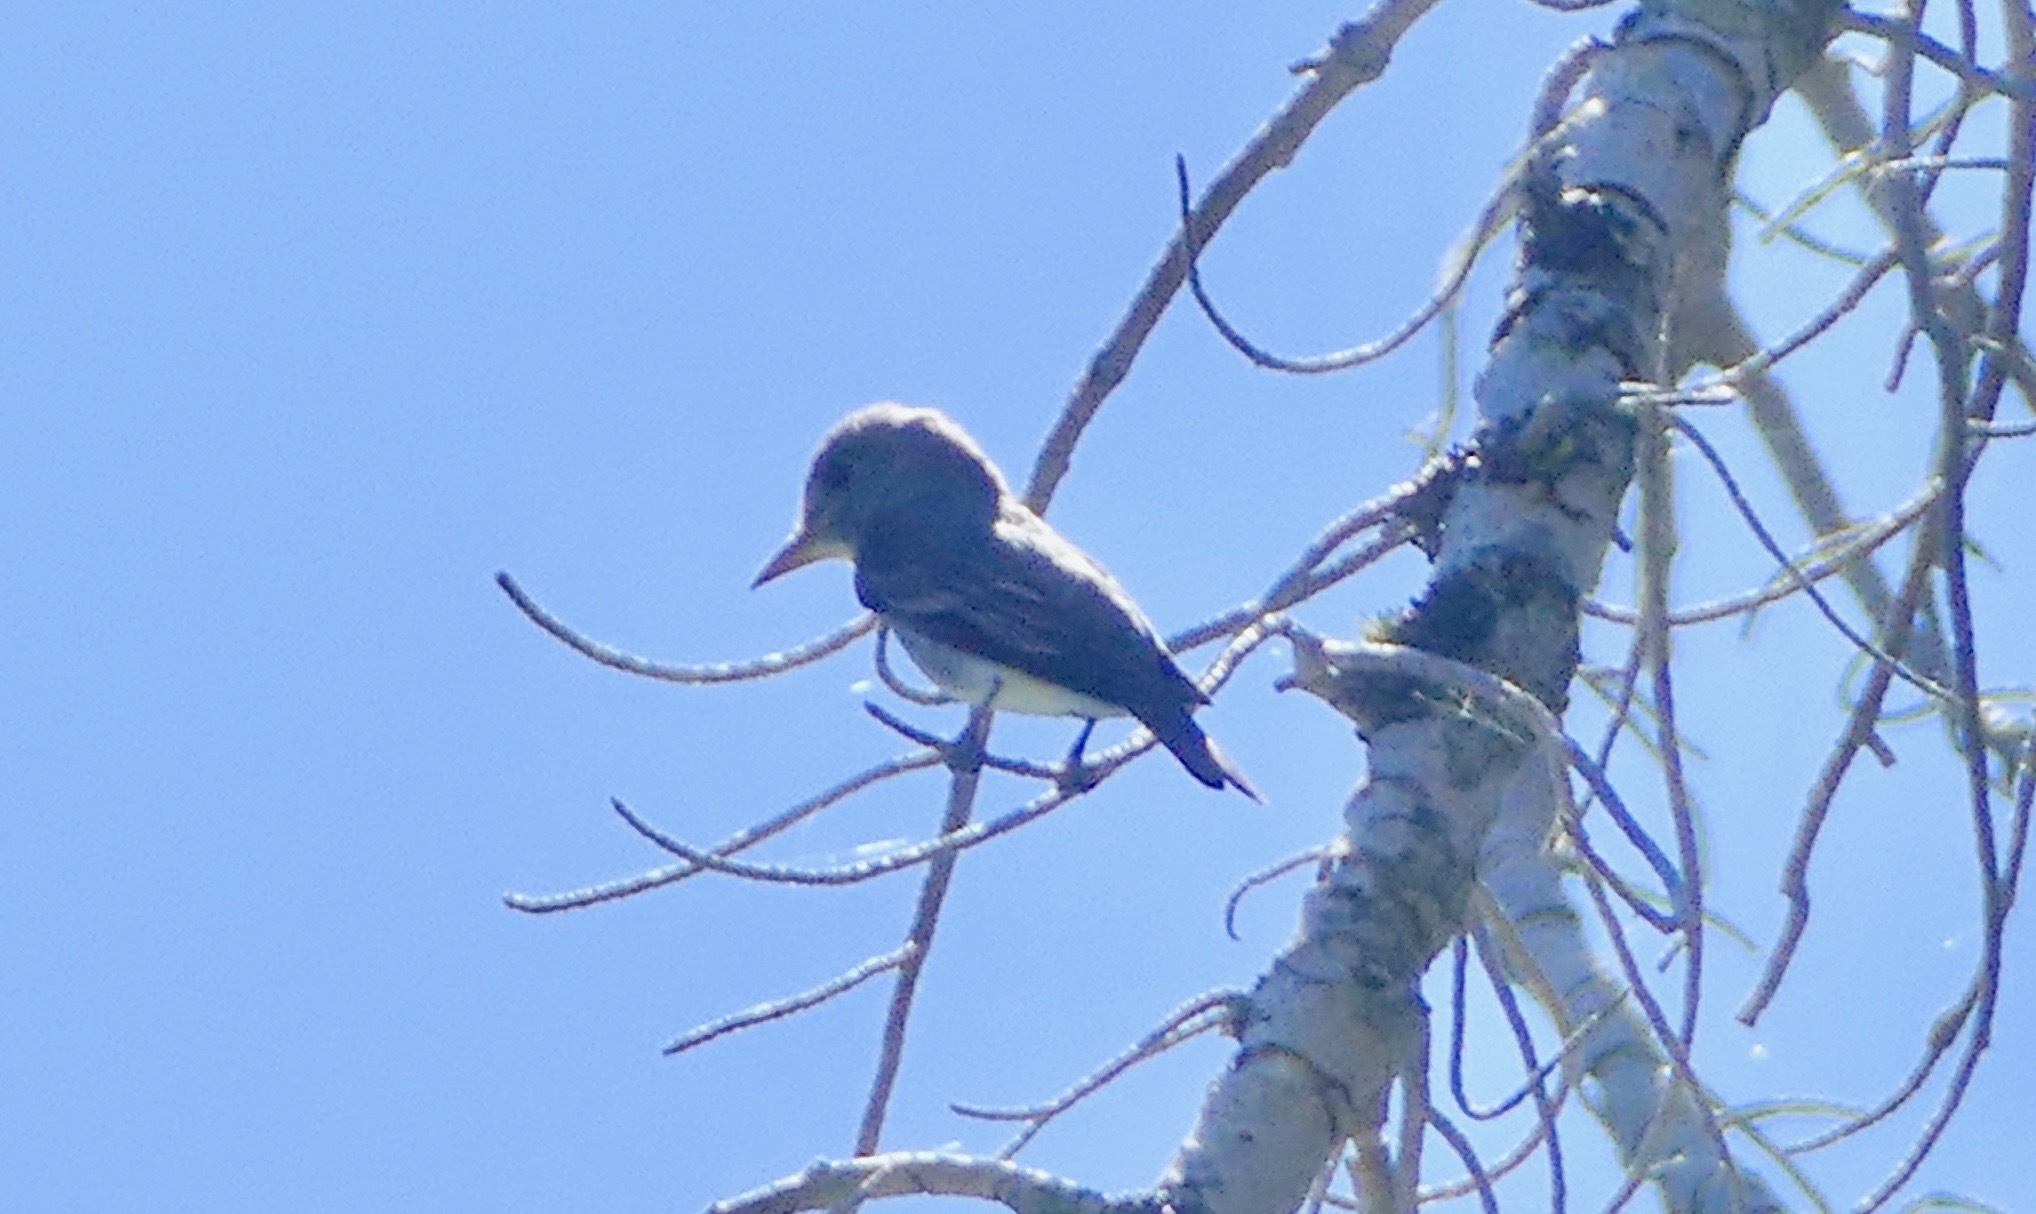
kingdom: Animalia
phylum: Chordata
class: Aves
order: Passeriformes
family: Tyrannidae
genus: Contopus
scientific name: Contopus cooperi
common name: Olive-sided flycatcher
